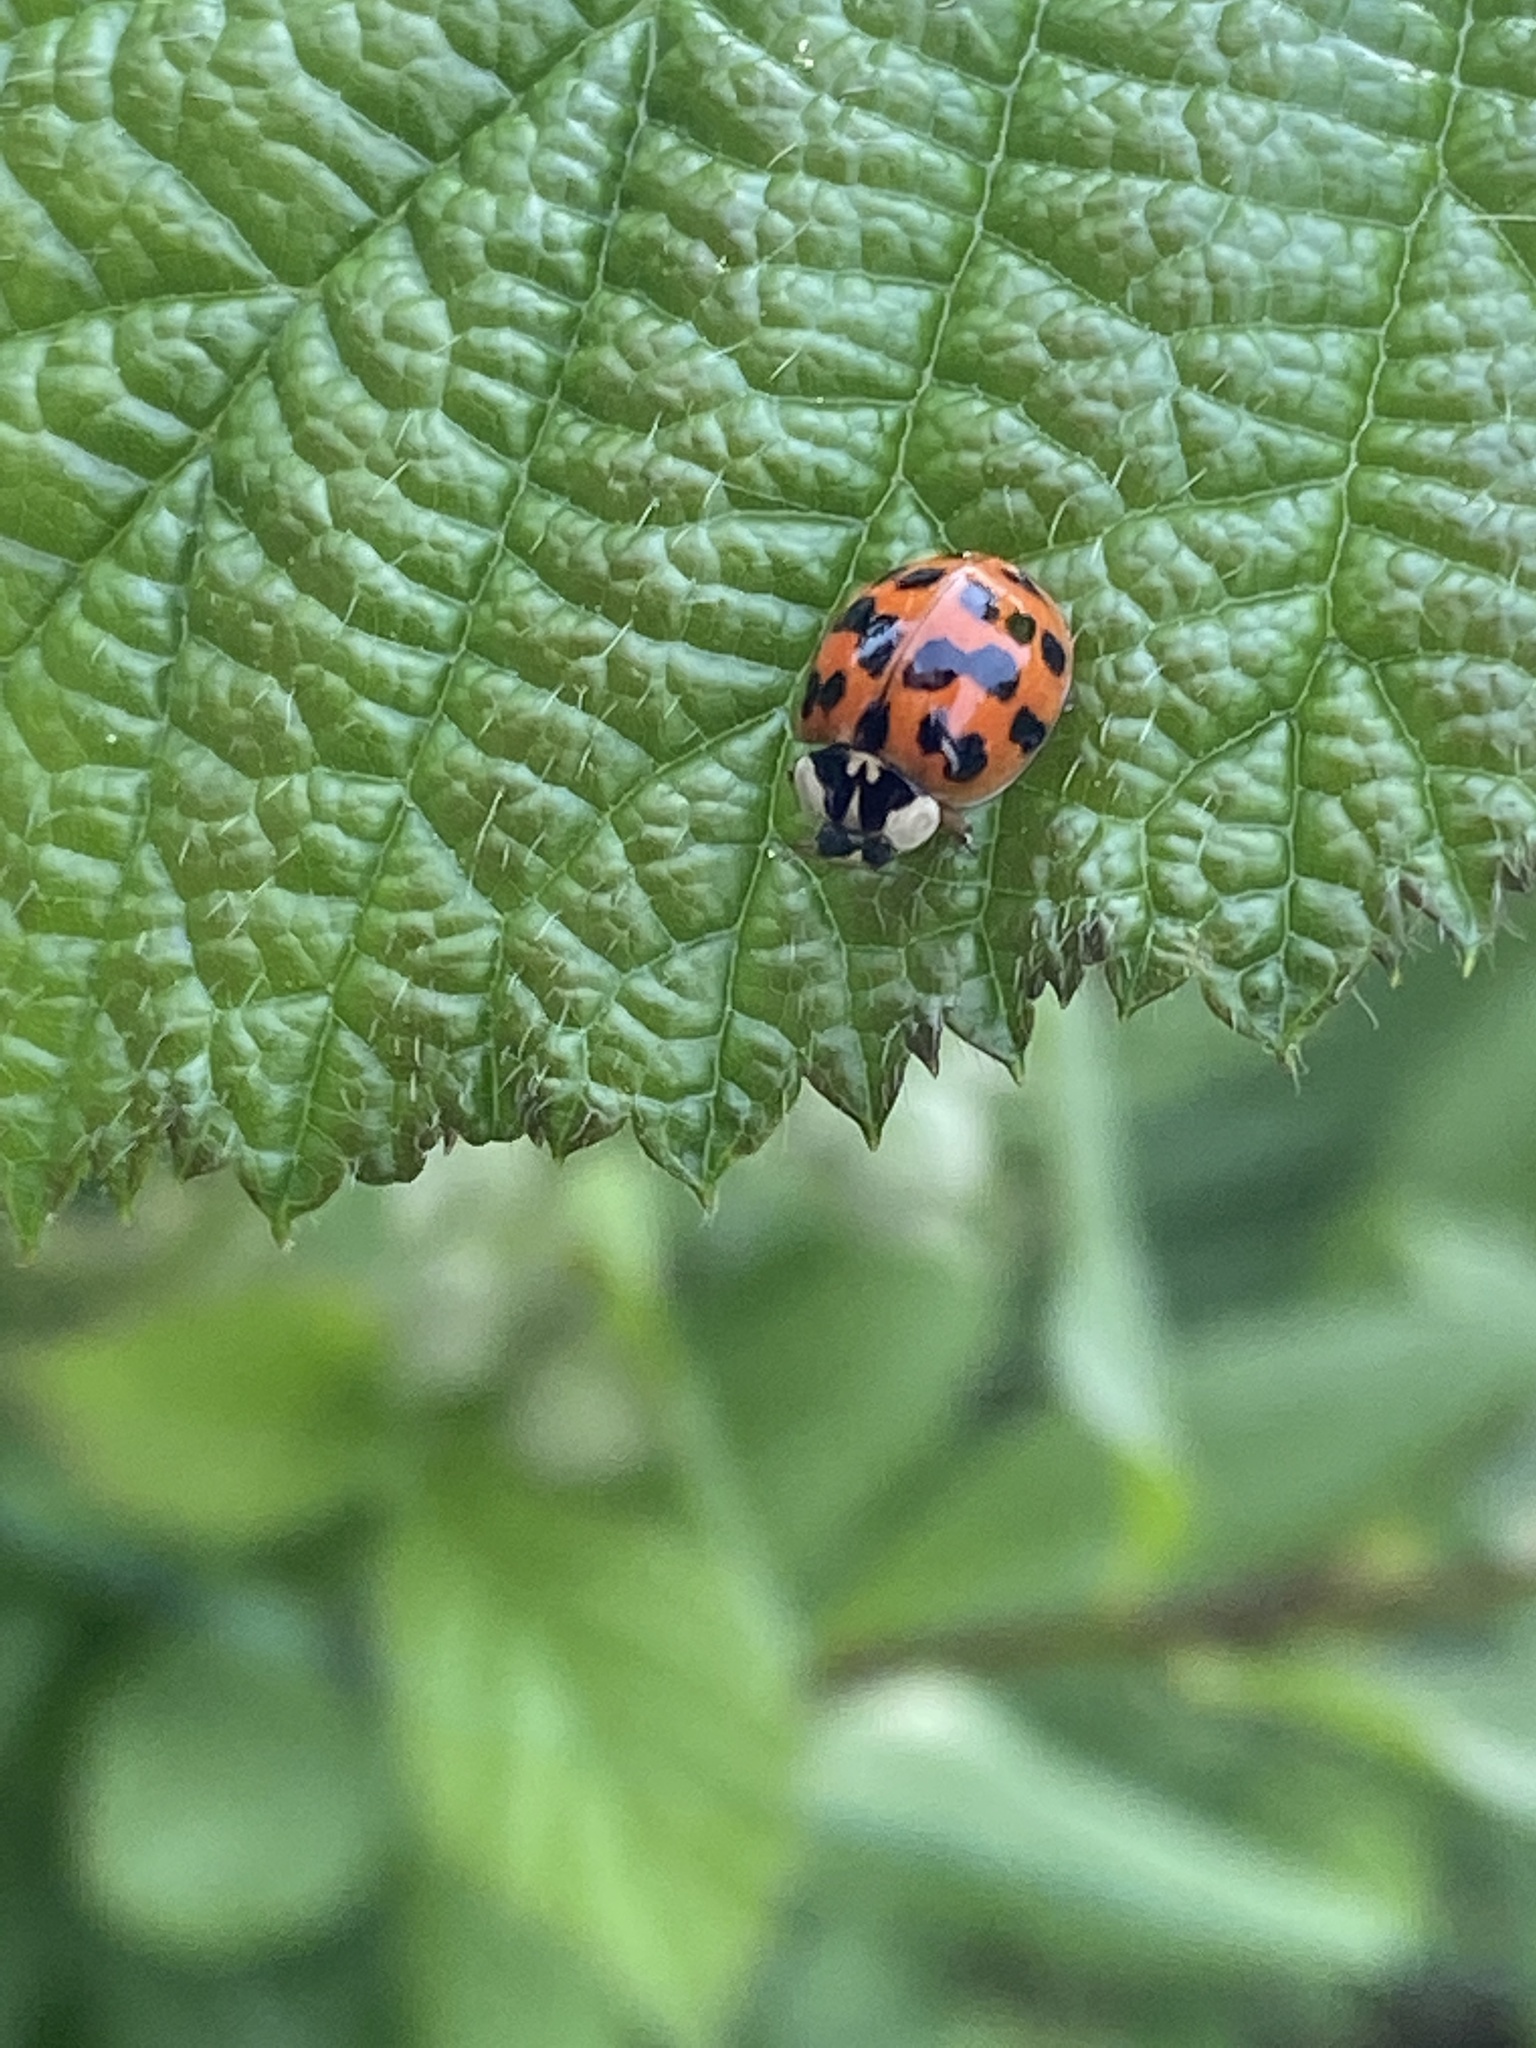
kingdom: Animalia
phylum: Arthropoda
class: Insecta
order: Coleoptera
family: Coccinellidae
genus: Harmonia
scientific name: Harmonia axyridis
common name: Harlequin ladybird
